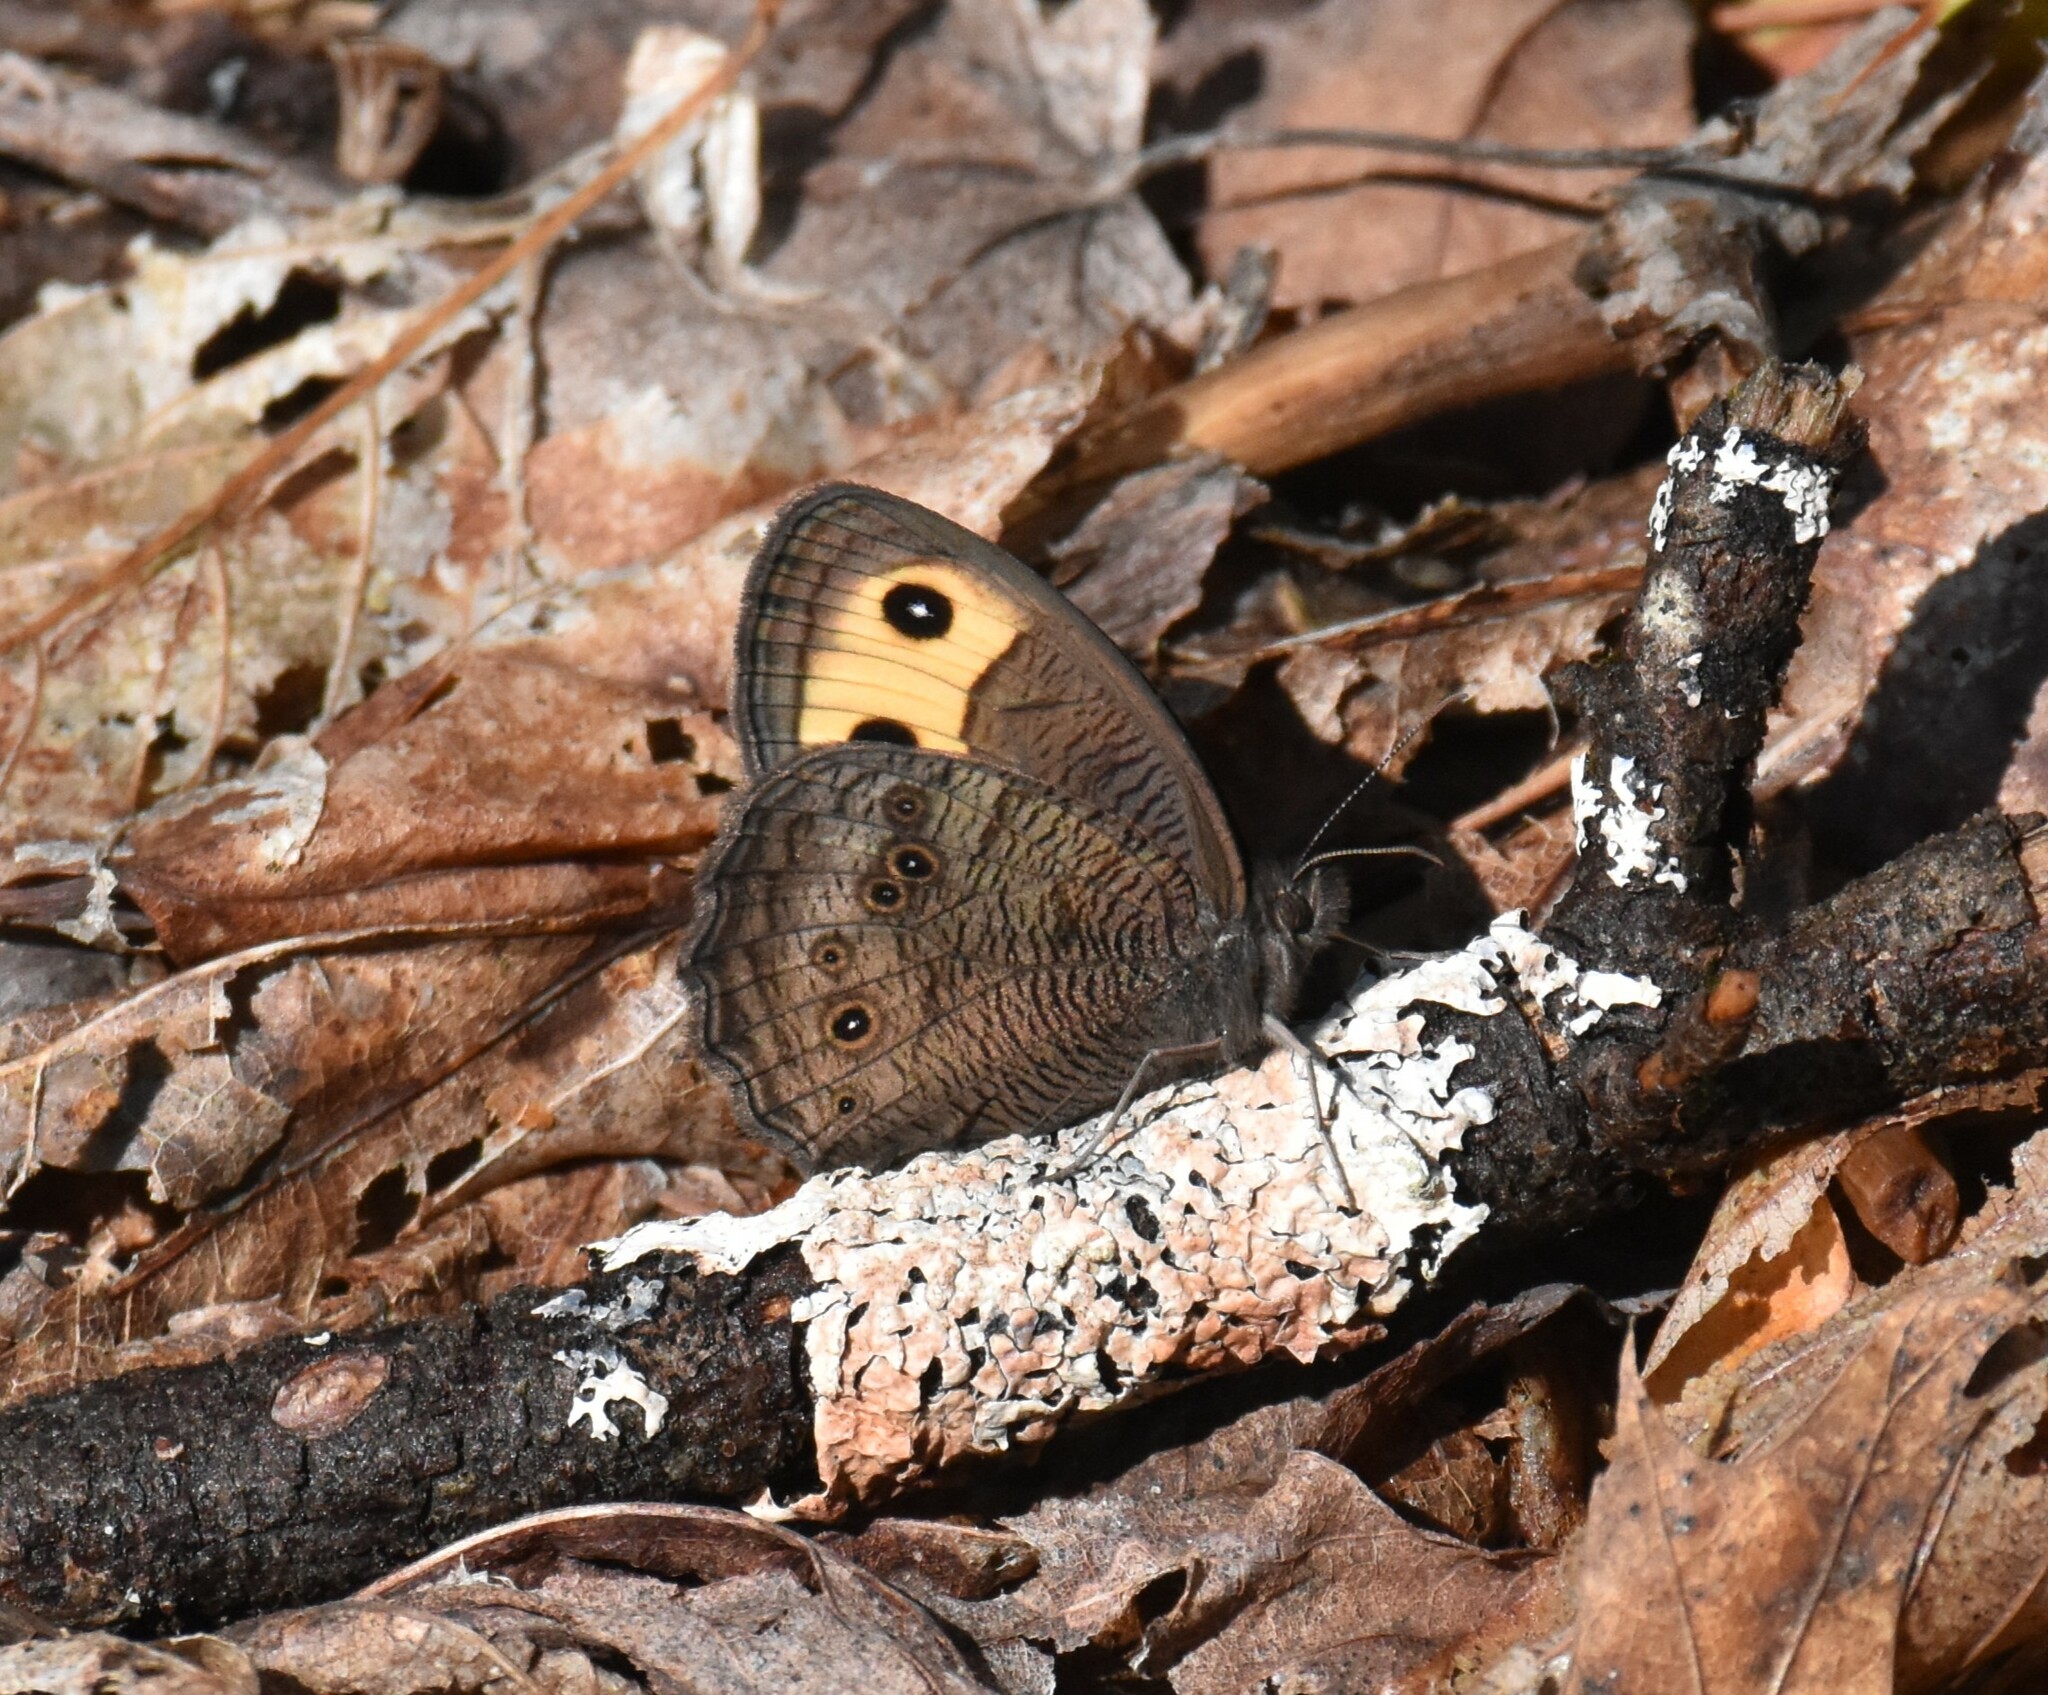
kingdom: Animalia
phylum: Arthropoda
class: Insecta
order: Lepidoptera
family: Nymphalidae
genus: Cercyonis
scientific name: Cercyonis pegala
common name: Common wood-nymph
